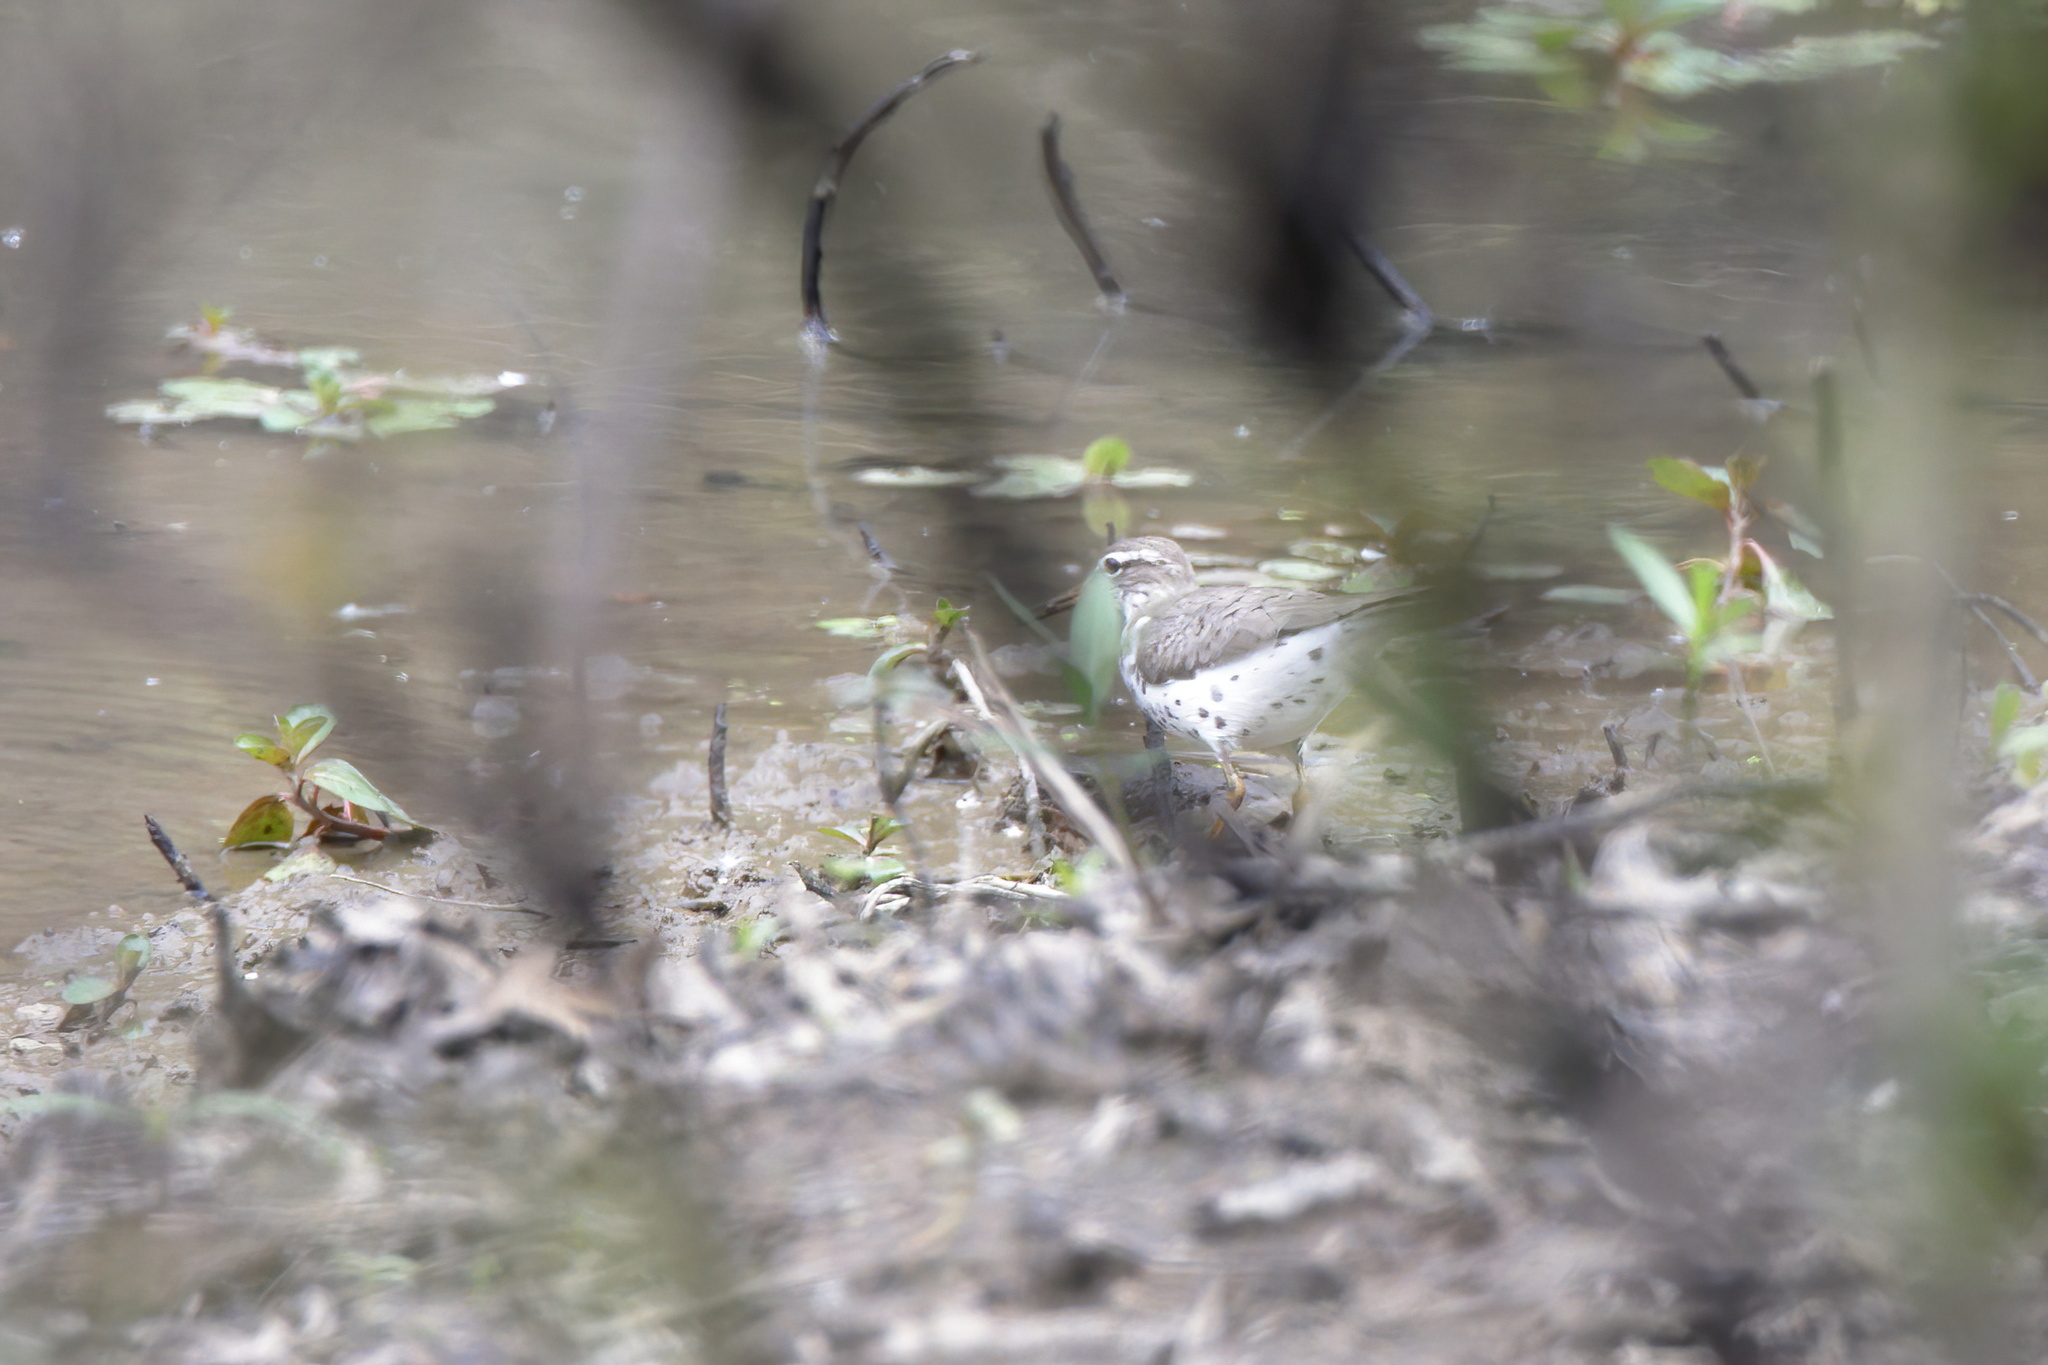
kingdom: Animalia
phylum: Chordata
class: Aves
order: Charadriiformes
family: Scolopacidae
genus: Actitis
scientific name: Actitis macularius
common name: Spotted sandpiper
